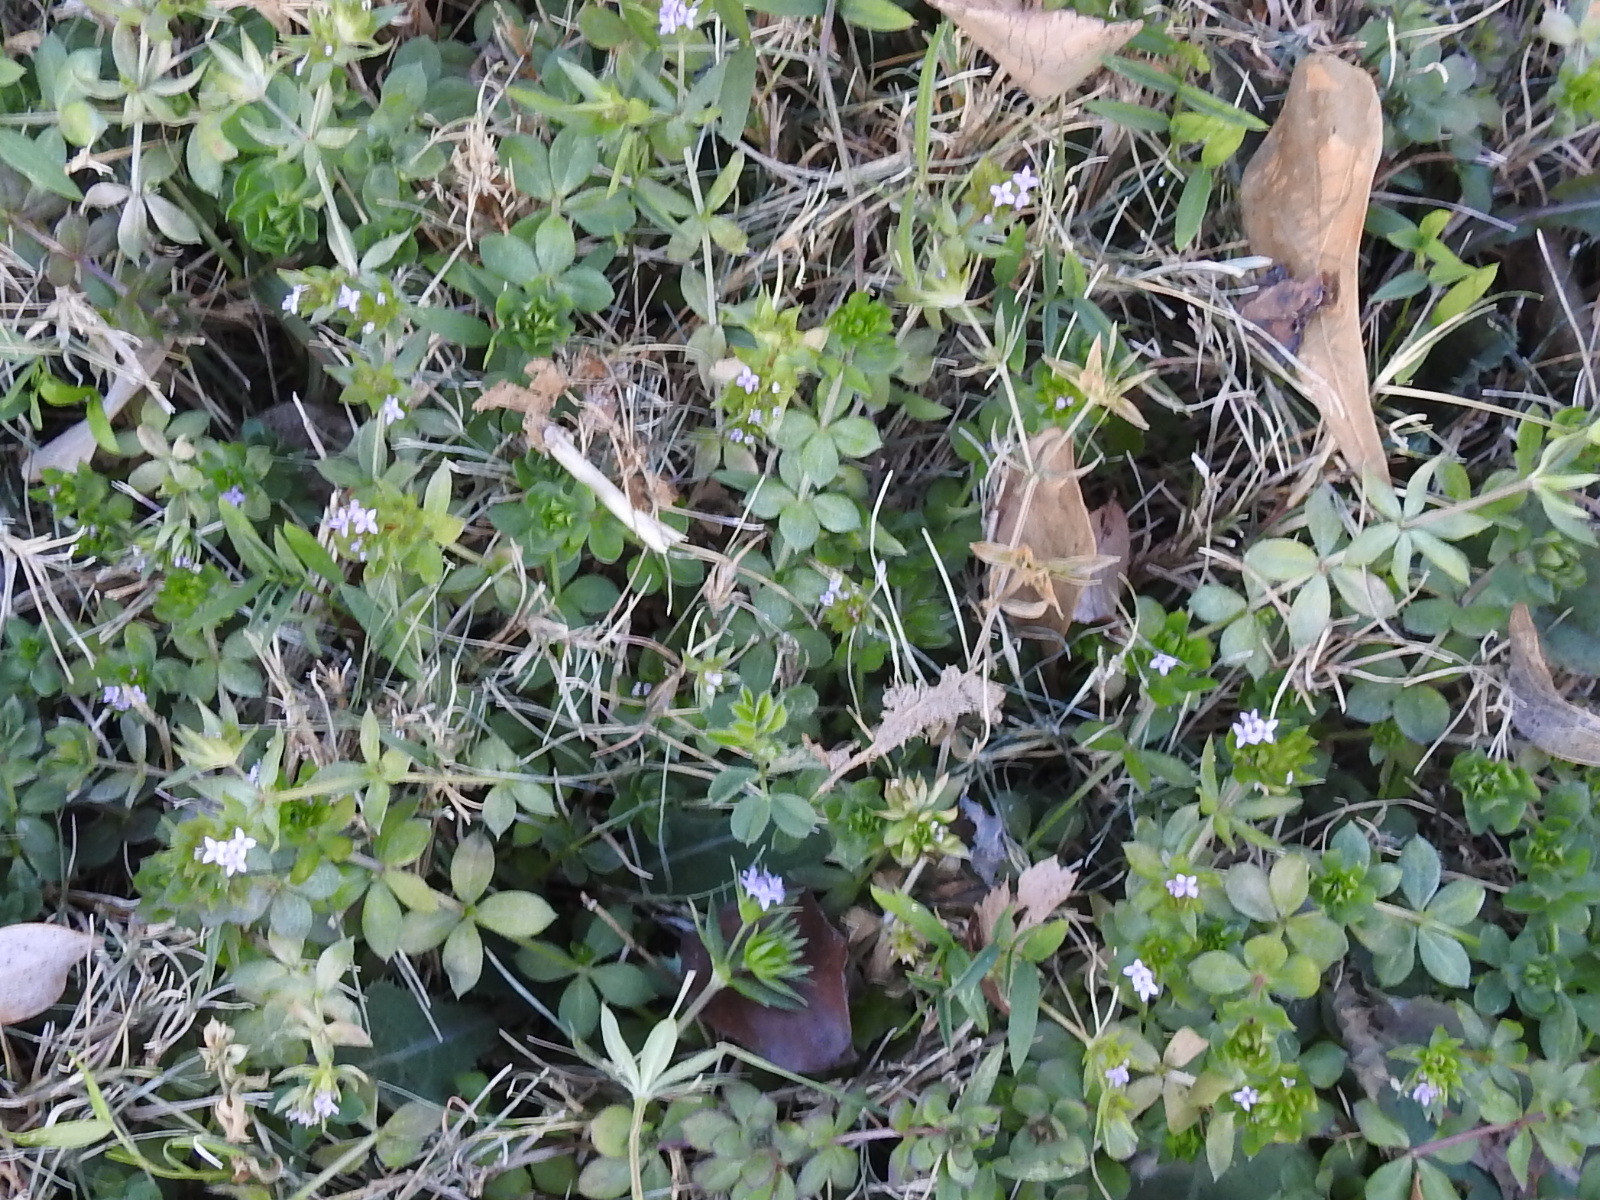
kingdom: Plantae
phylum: Tracheophyta
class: Magnoliopsida
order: Gentianales
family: Rubiaceae
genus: Sherardia
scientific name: Sherardia arvensis
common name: Field madder
